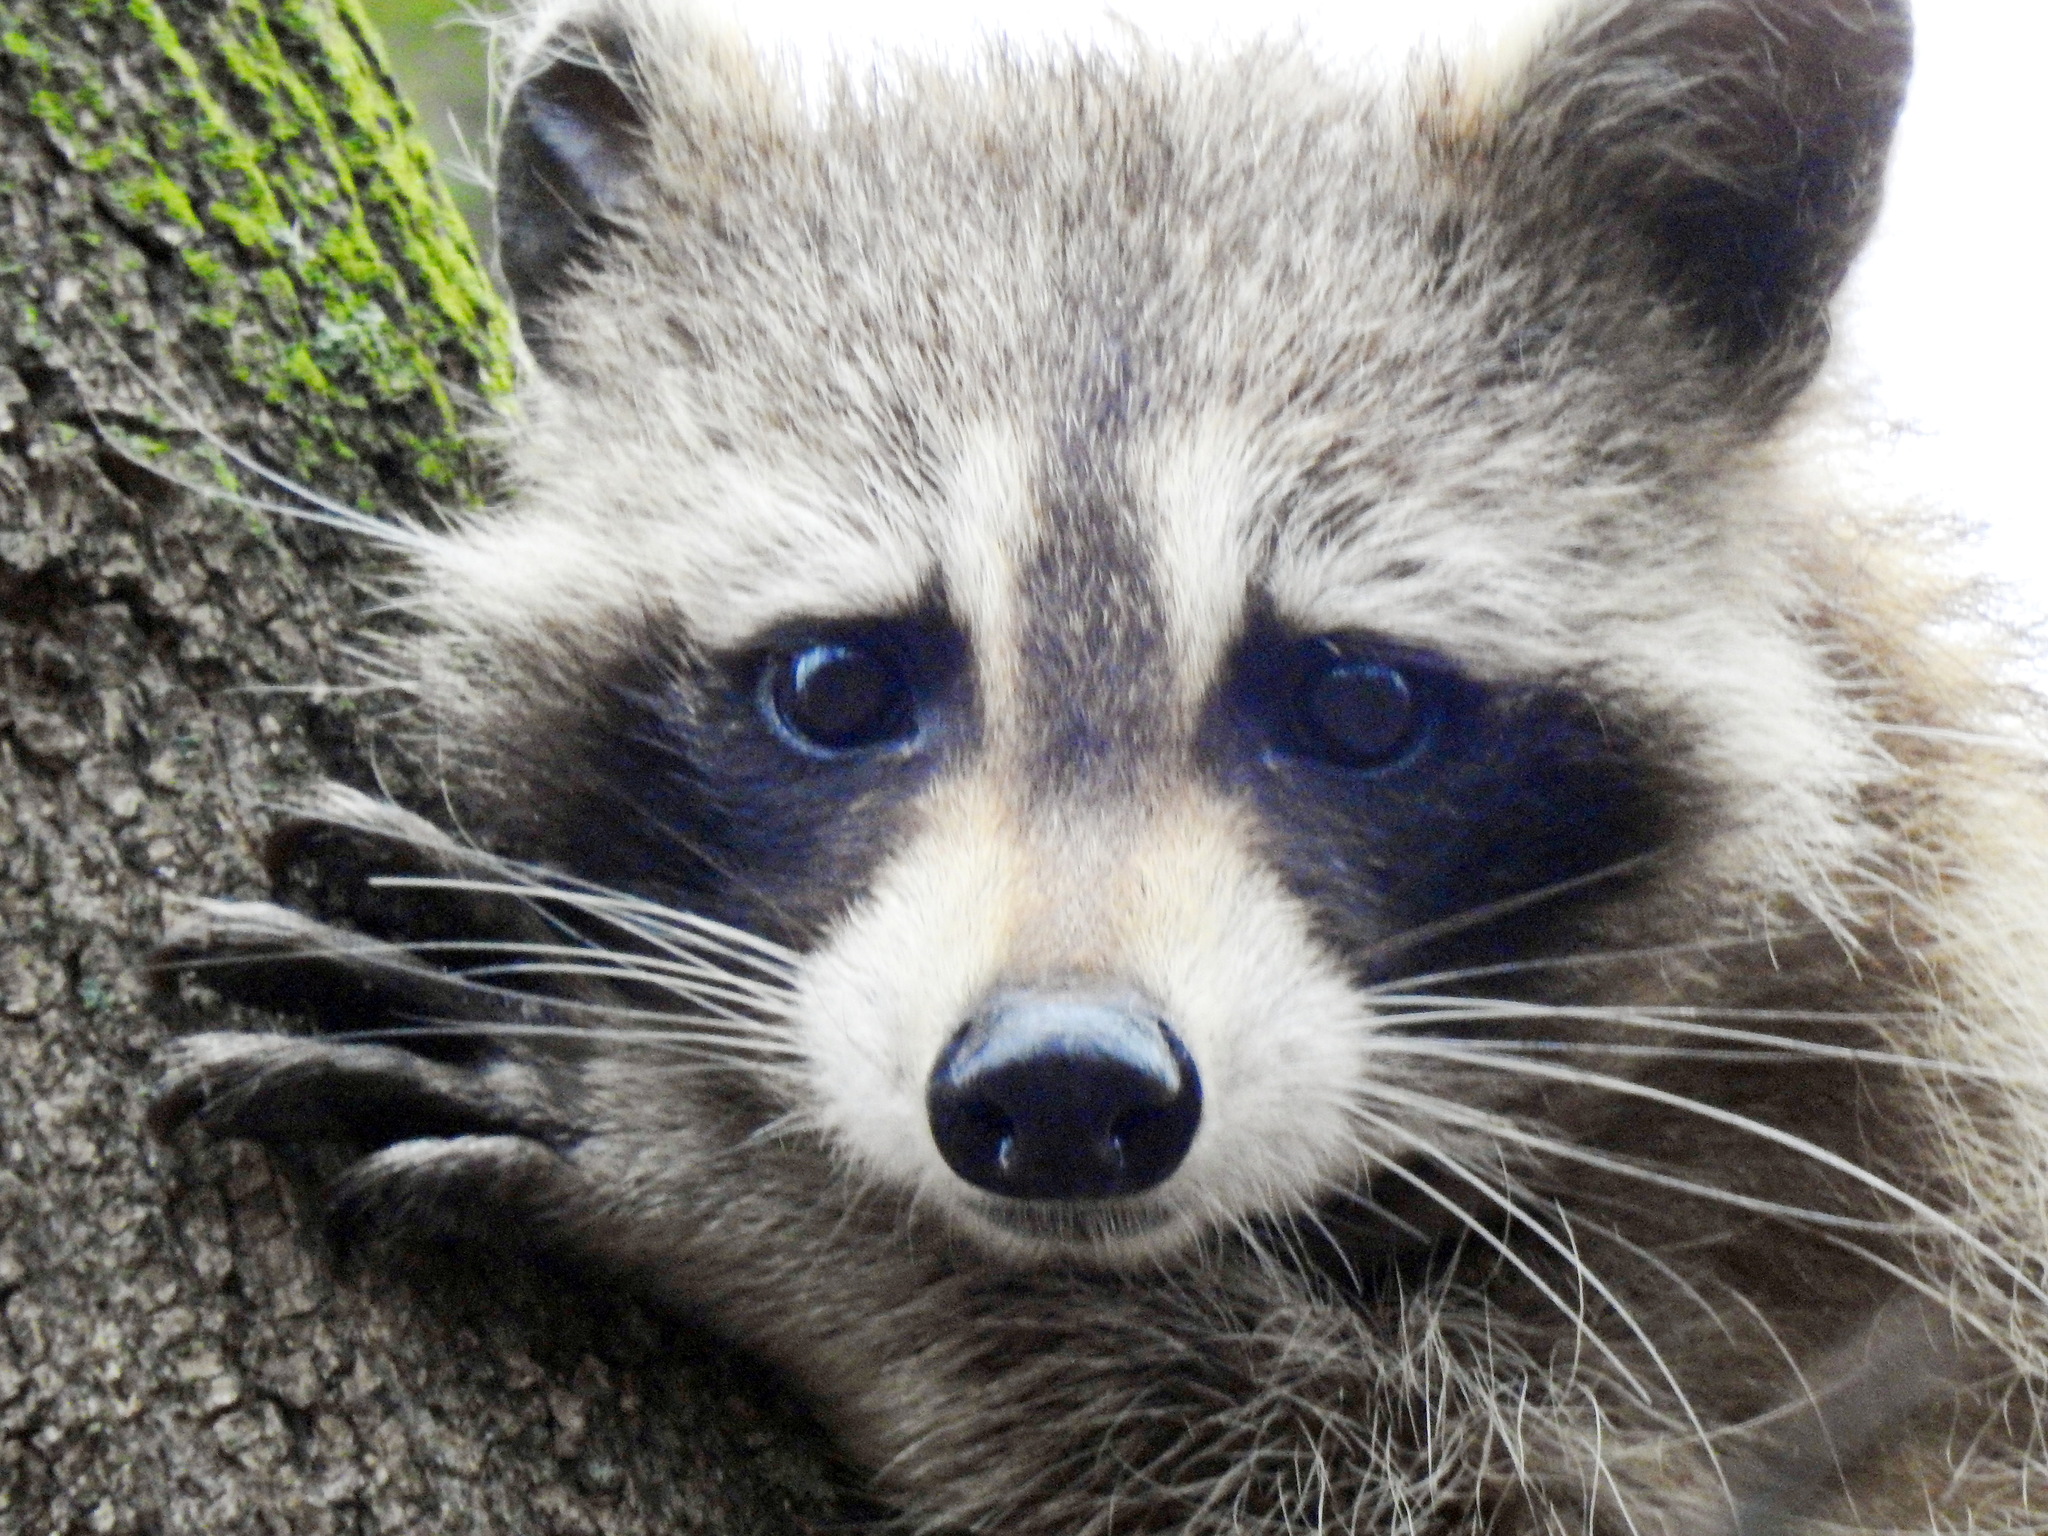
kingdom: Animalia
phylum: Chordata
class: Mammalia
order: Carnivora
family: Procyonidae
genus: Procyon
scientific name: Procyon lotor
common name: Raccoon
